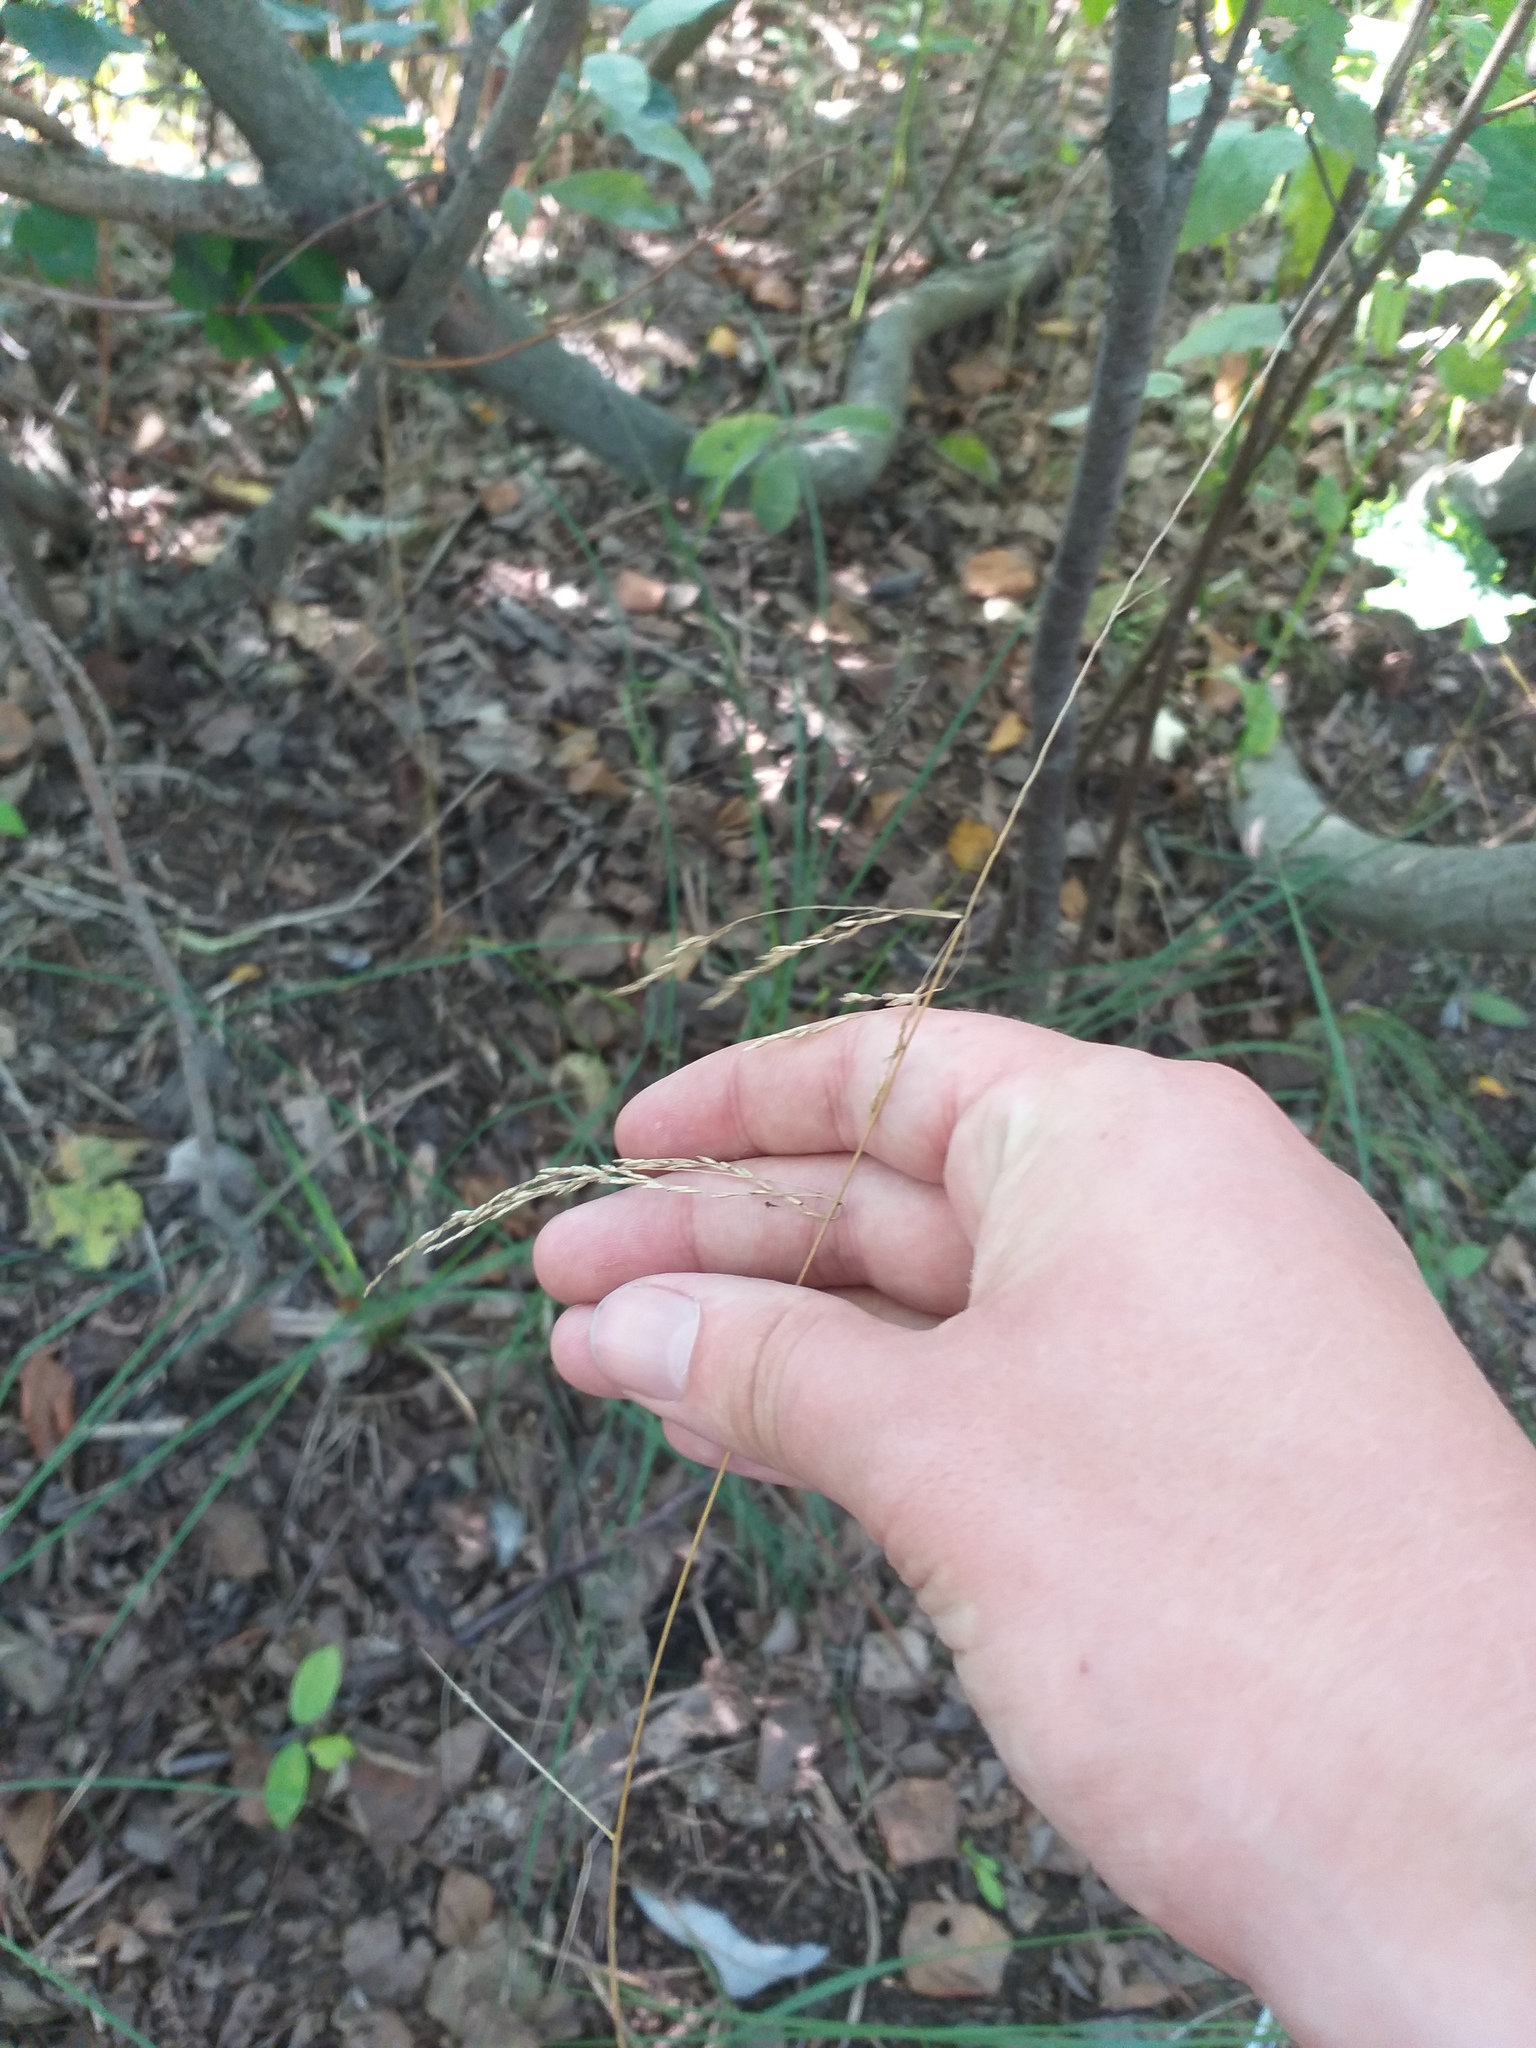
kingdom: Plantae
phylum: Tracheophyta
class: Liliopsida
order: Poales
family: Poaceae
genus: Deschampsia
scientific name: Deschampsia cespitosa
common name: Tufted hair-grass
